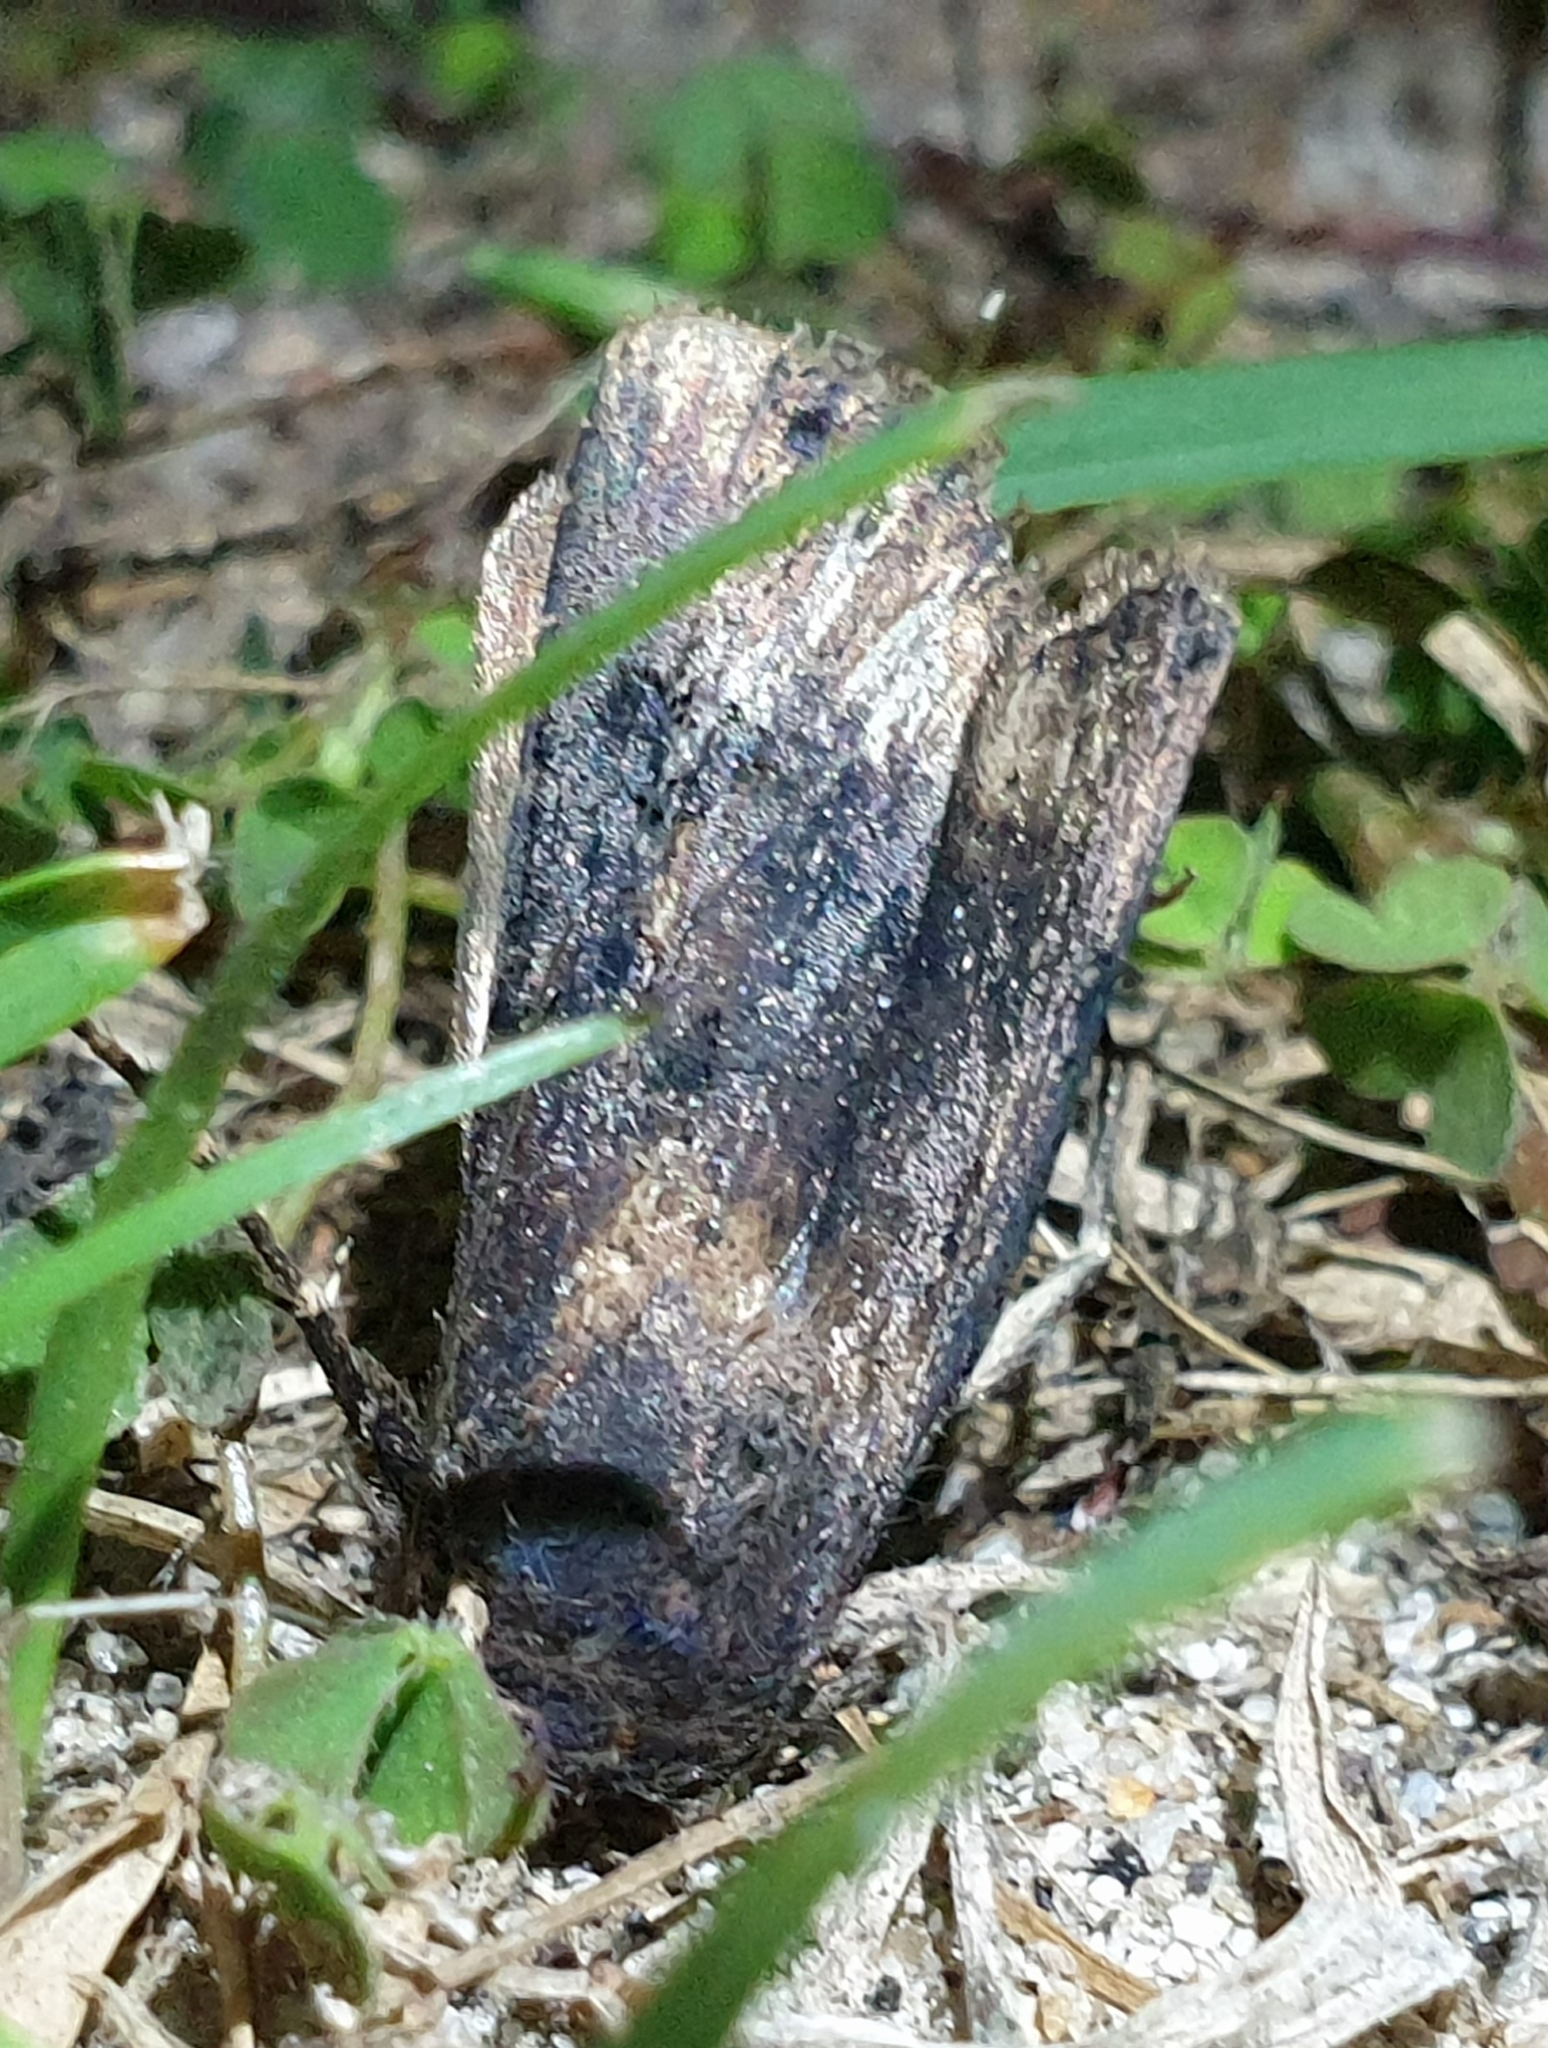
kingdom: Animalia
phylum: Arthropoda
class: Insecta
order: Lepidoptera
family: Noctuidae
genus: Agrotis
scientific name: Agrotis ipsilon
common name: Dark sword-grass
